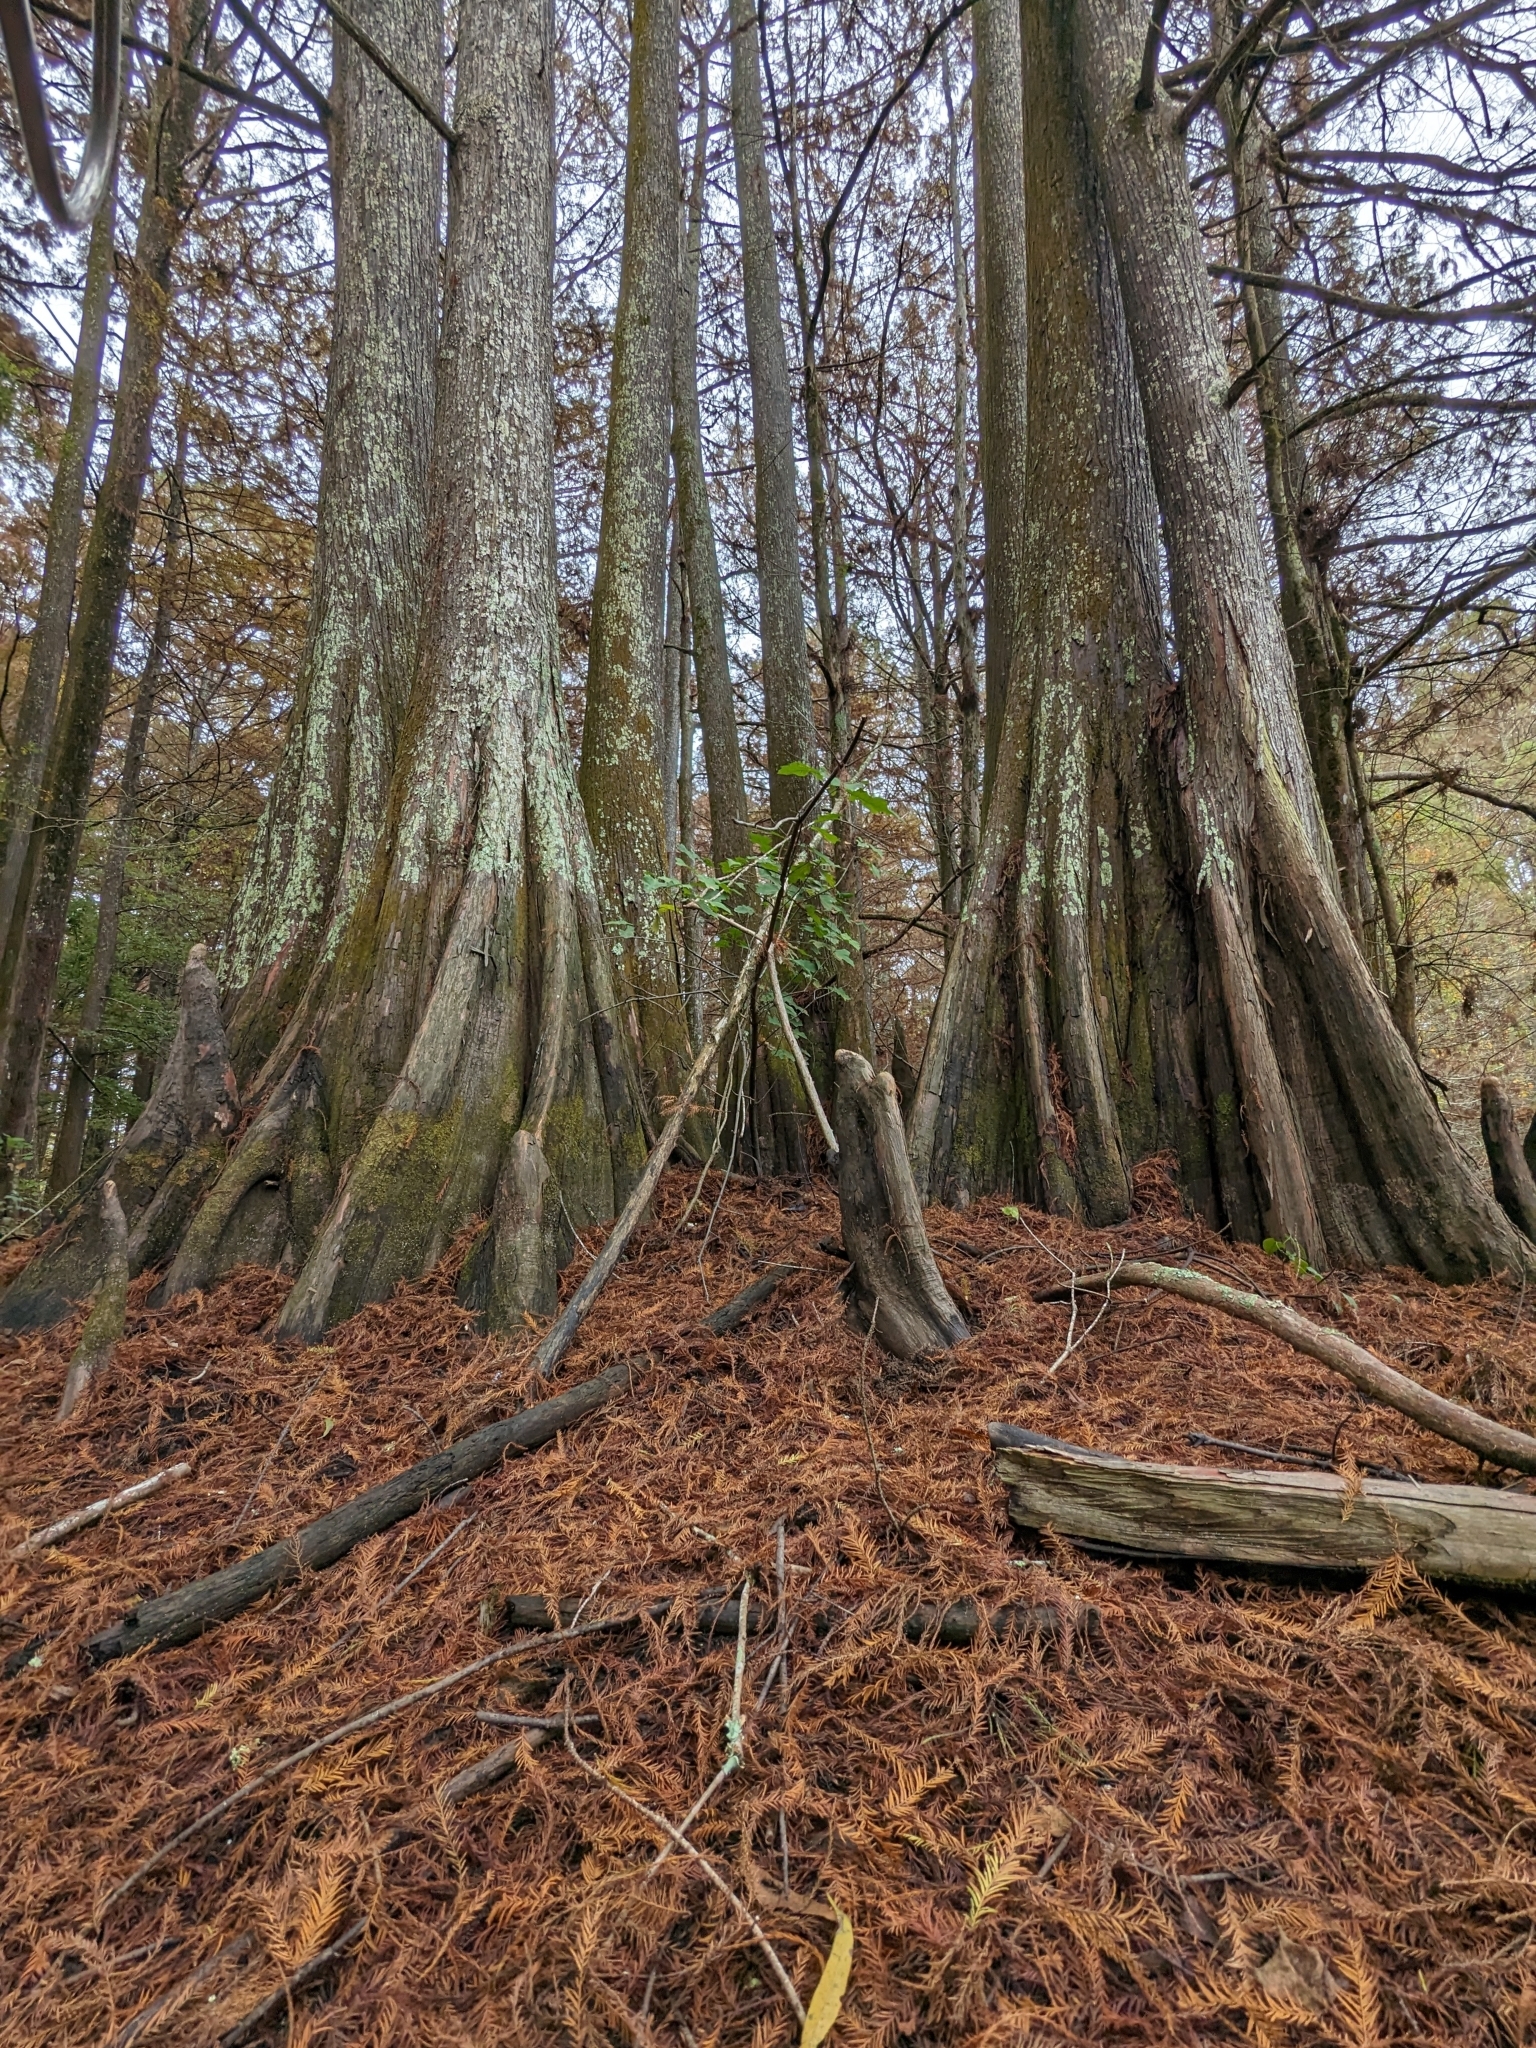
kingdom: Plantae
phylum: Tracheophyta
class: Pinopsida
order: Pinales
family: Cupressaceae
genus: Taxodium
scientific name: Taxodium distichum
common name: Bald cypress
